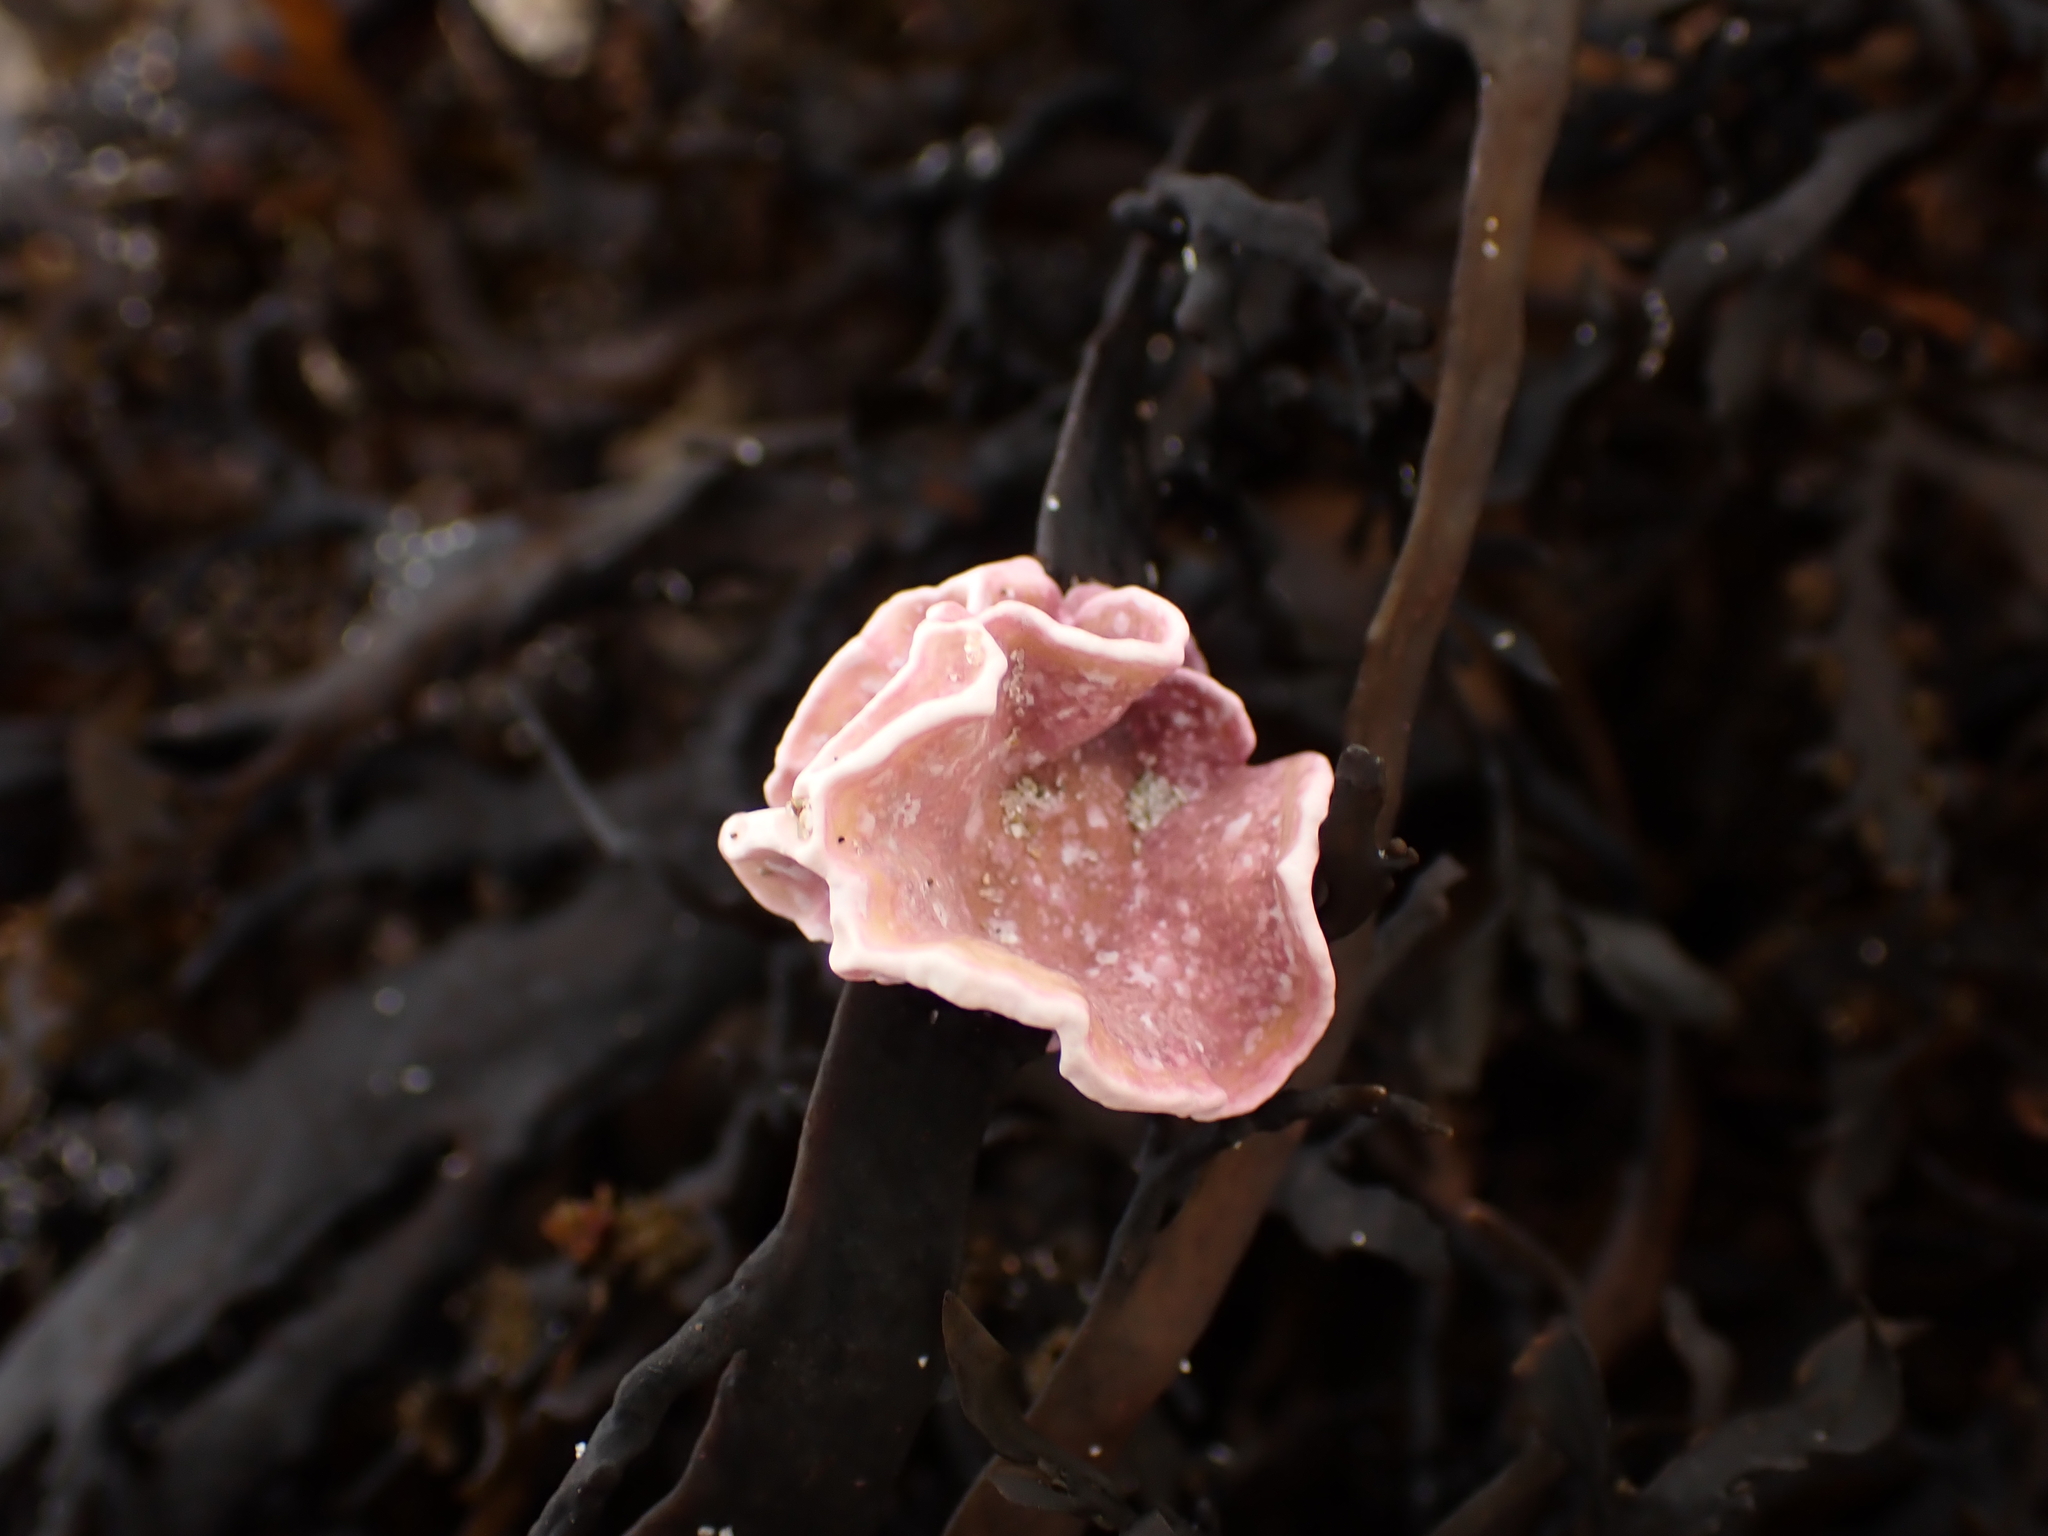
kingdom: Plantae
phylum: Rhodophyta
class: Florideophyceae
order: Corallinales
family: Lithophyllaceae
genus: Lithophyllum
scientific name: Lithophyllum carpophylli
